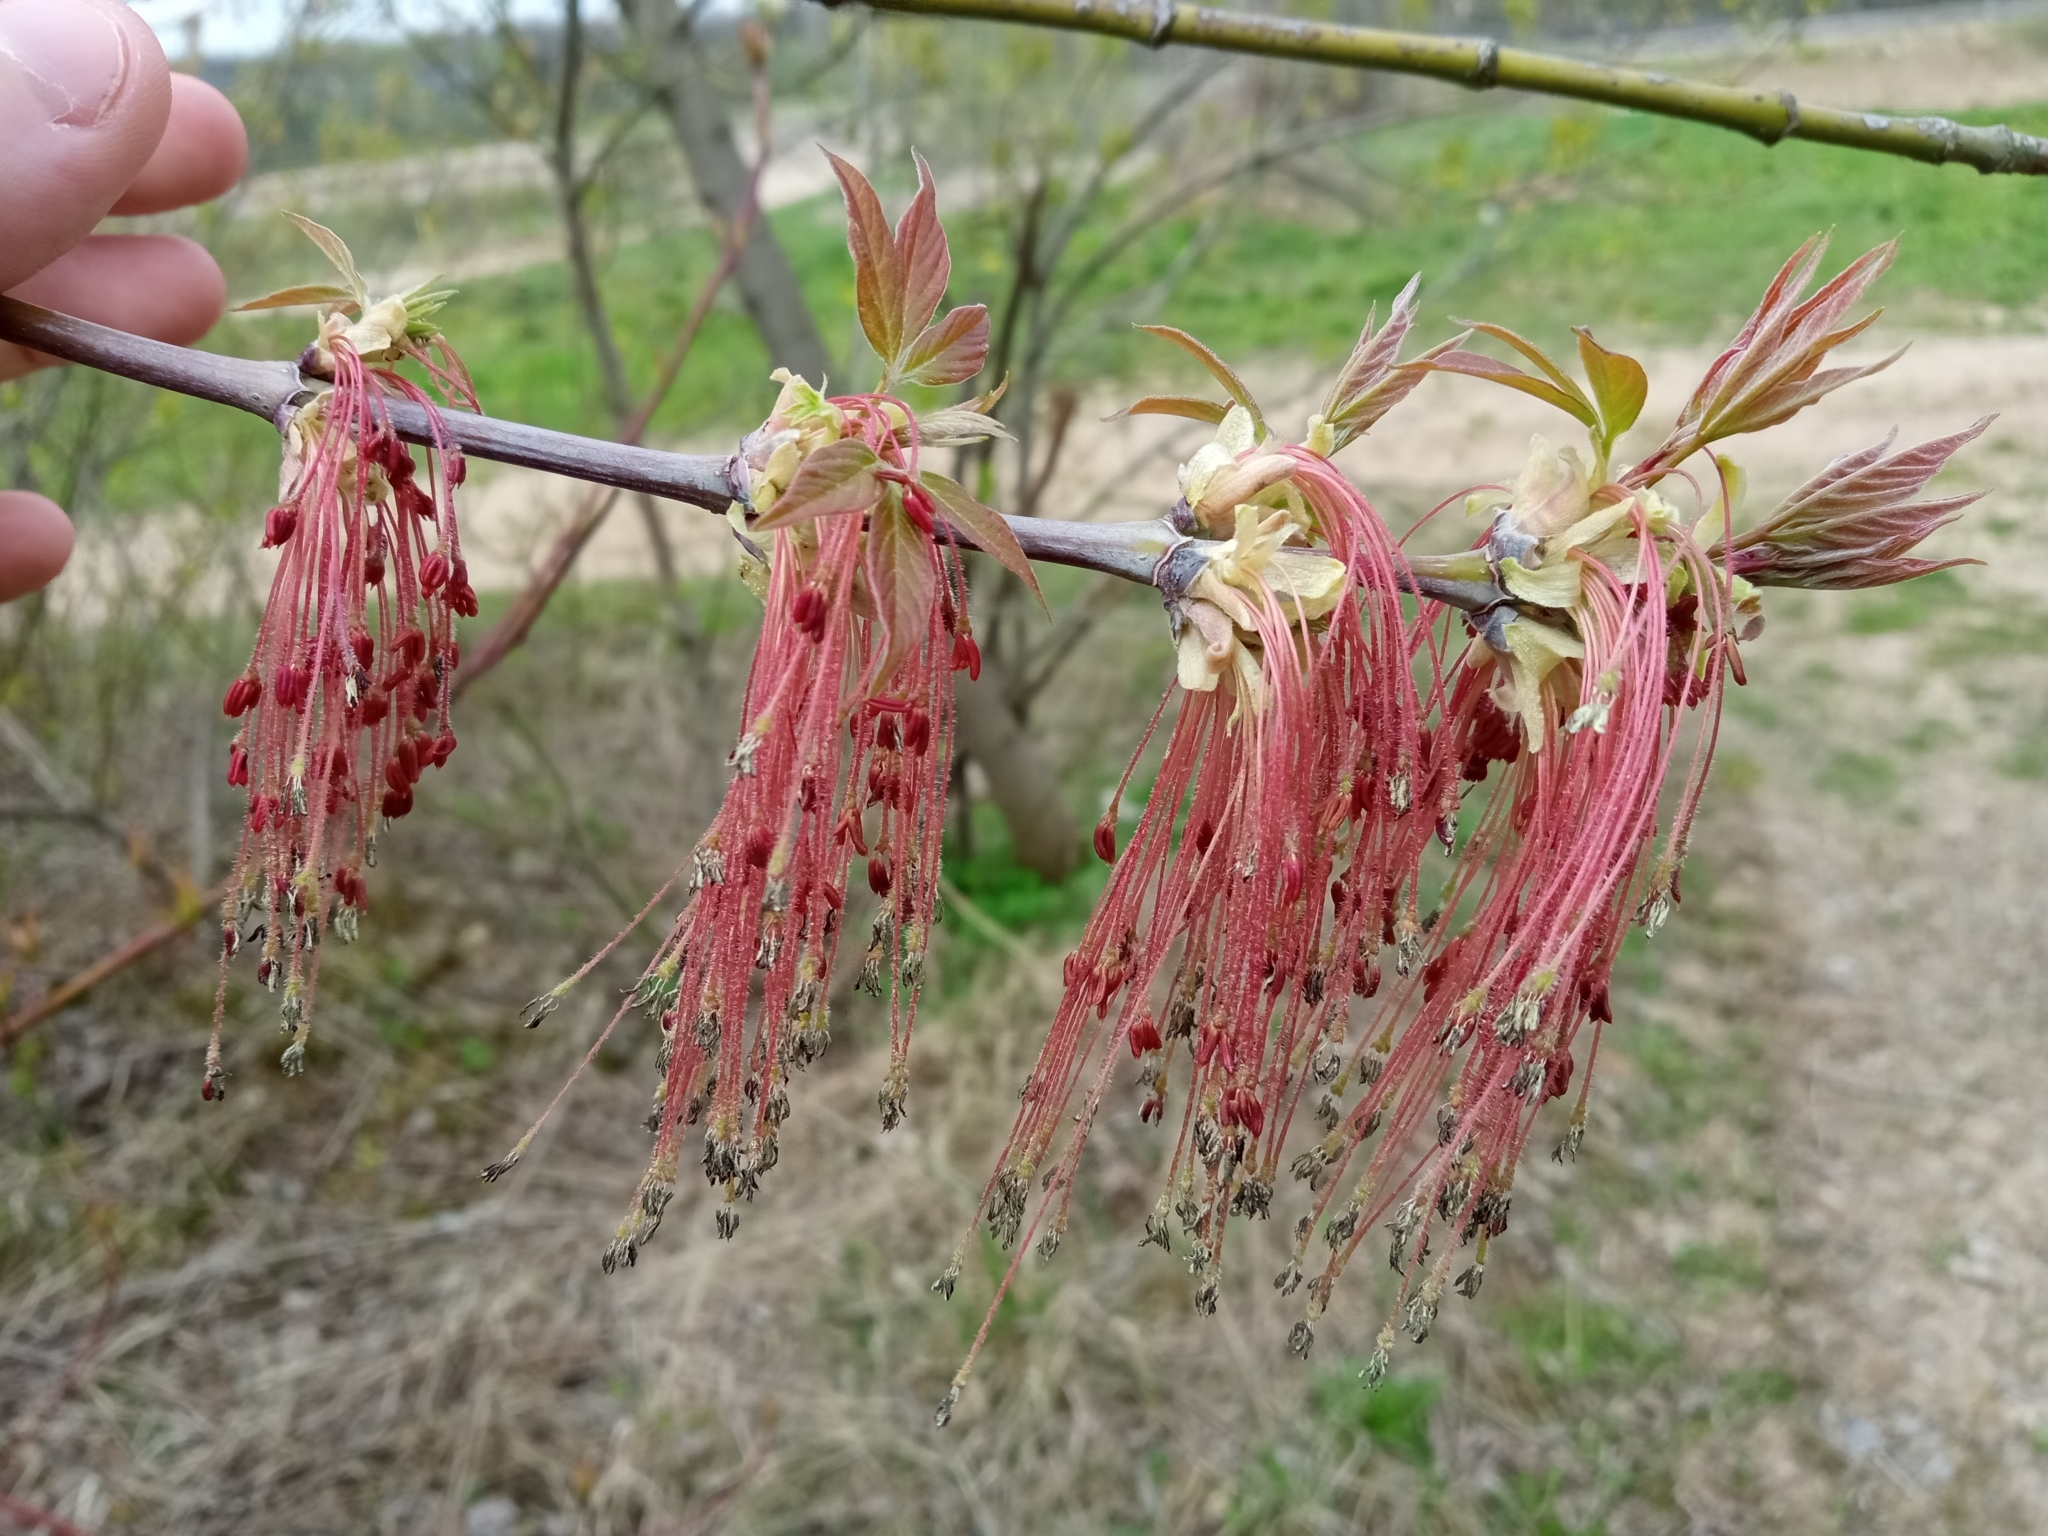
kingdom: Plantae
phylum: Tracheophyta
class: Magnoliopsida
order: Sapindales
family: Sapindaceae
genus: Acer
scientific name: Acer negundo
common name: Ashleaf maple
